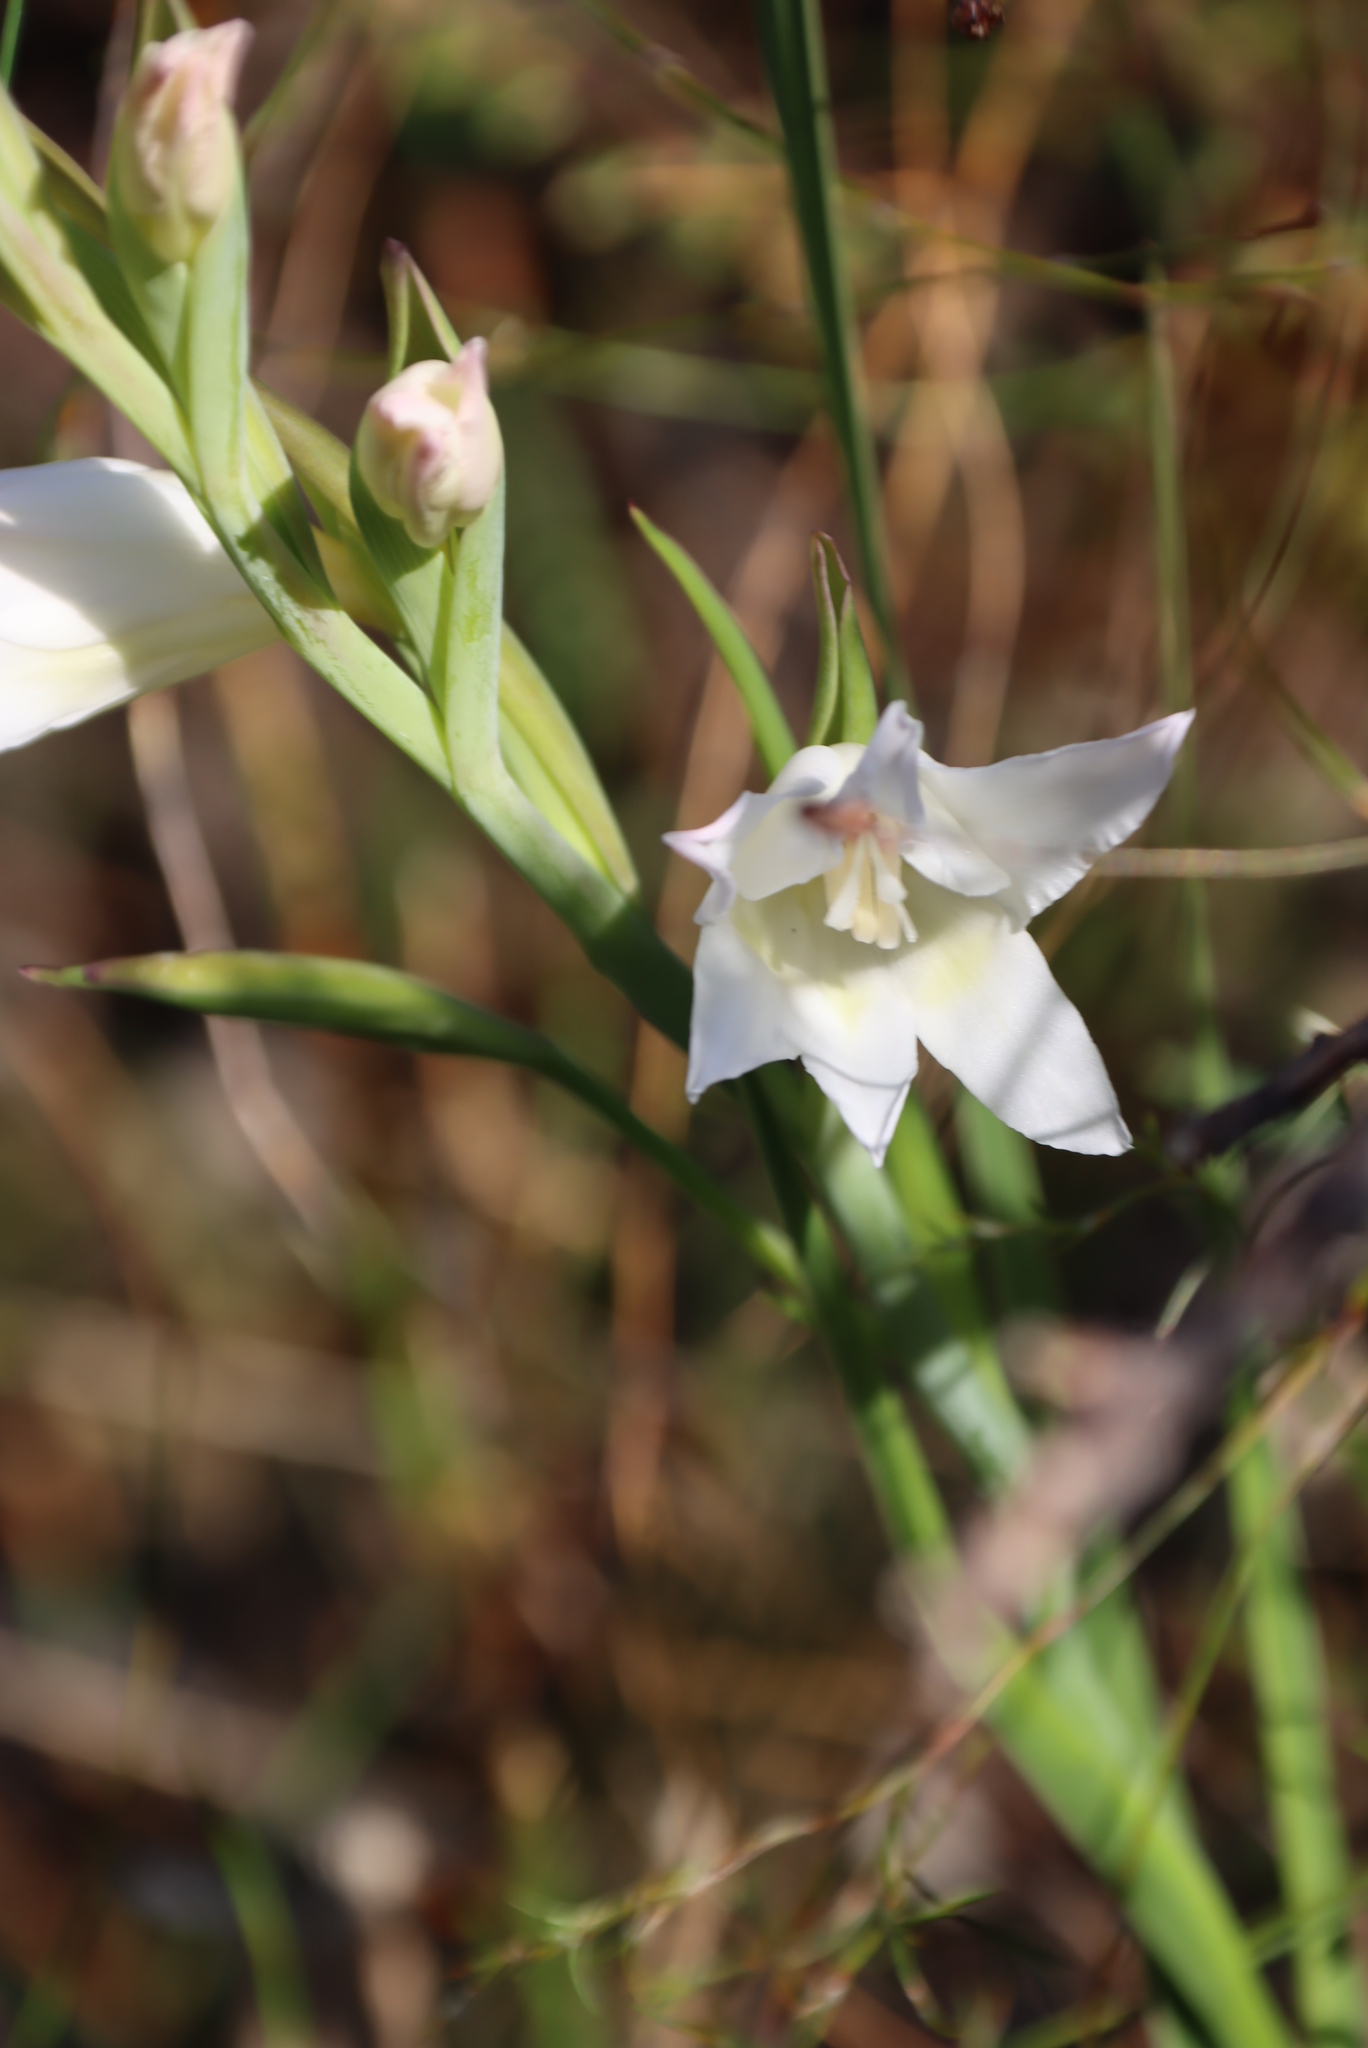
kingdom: Plantae
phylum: Tracheophyta
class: Liliopsida
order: Asparagales
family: Iridaceae
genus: Gladiolus
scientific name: Gladiolus carneus
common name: Painted-lady
